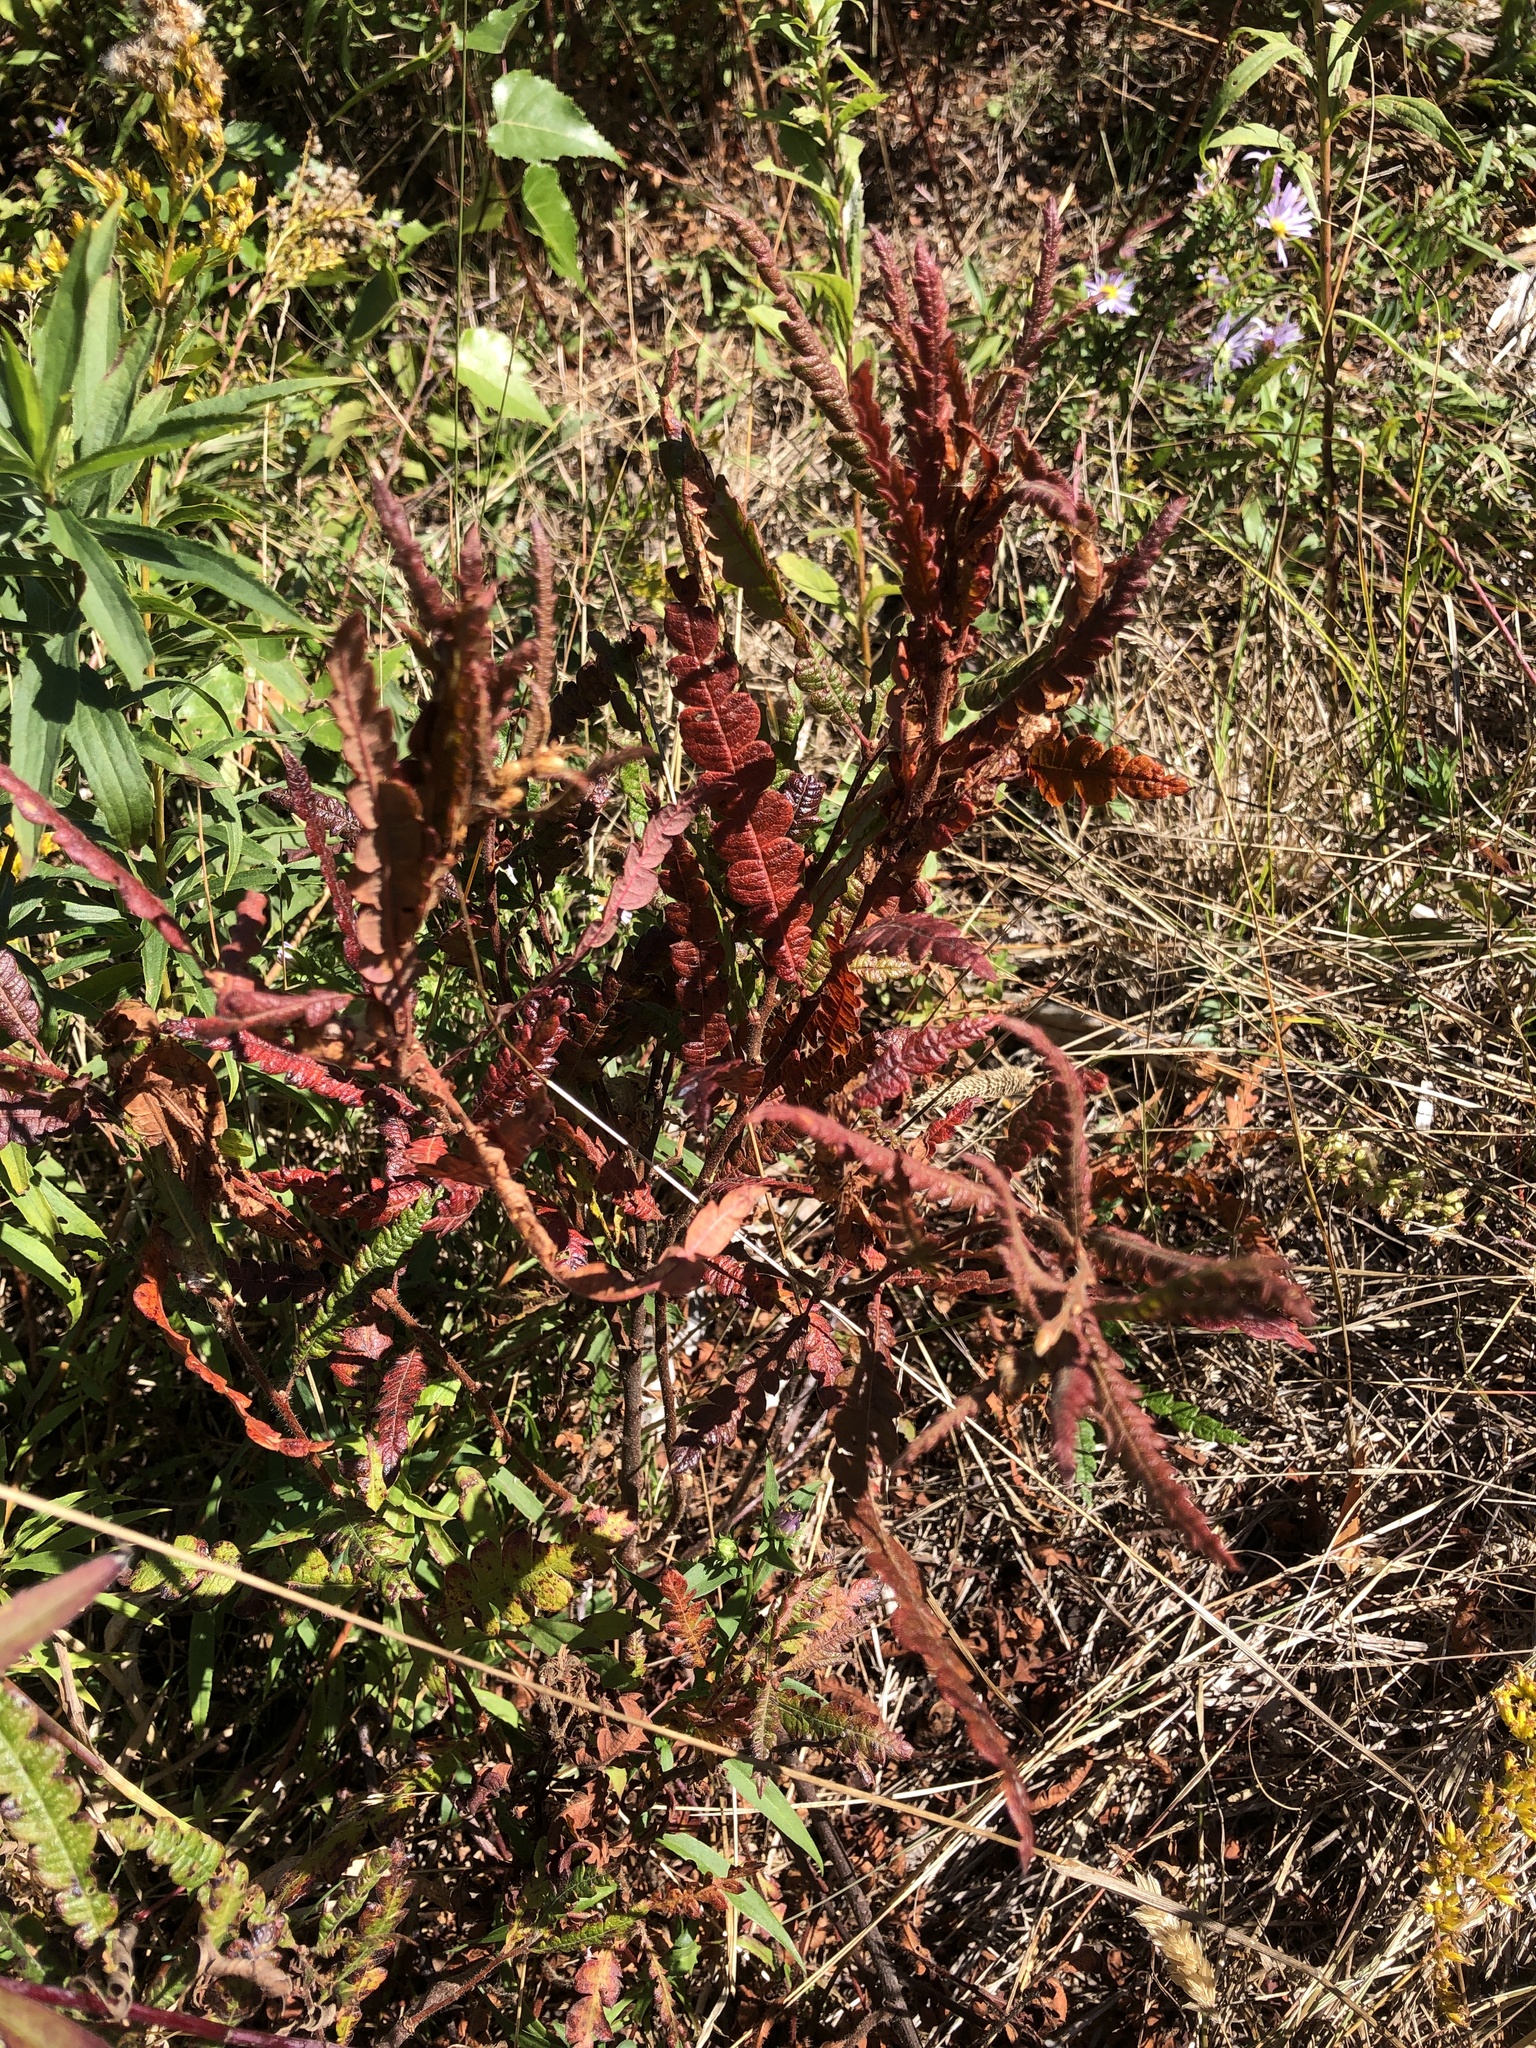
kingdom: Plantae
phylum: Tracheophyta
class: Magnoliopsida
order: Fagales
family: Myricaceae
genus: Comptonia
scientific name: Comptonia peregrina
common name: Sweet-fern
